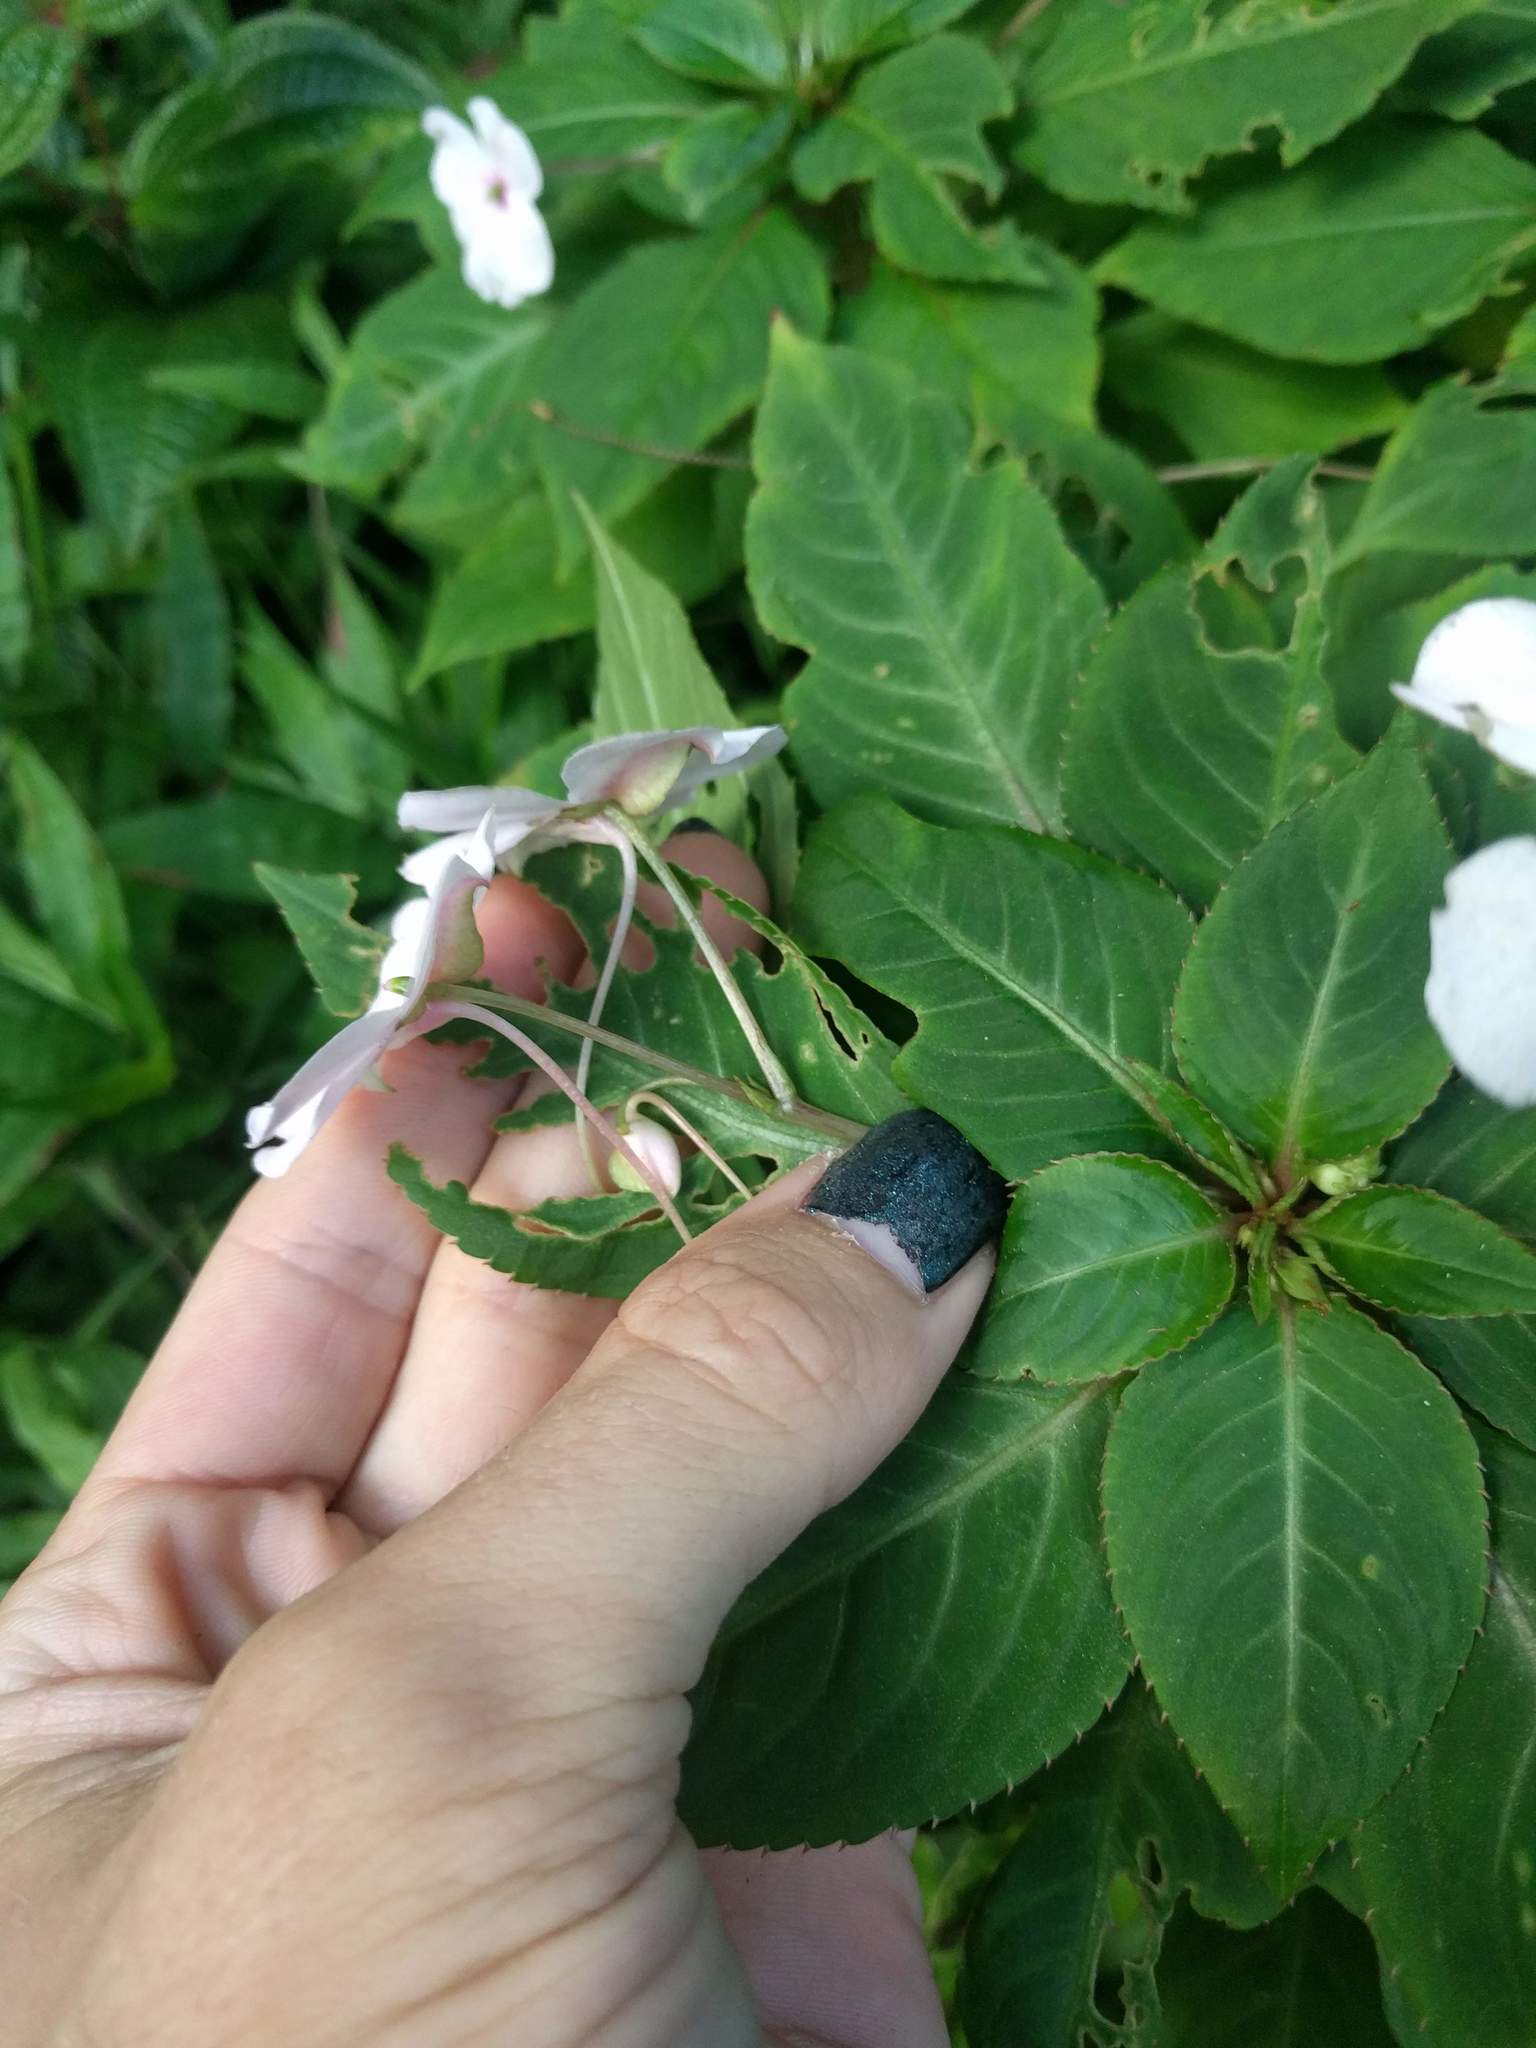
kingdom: Plantae
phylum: Tracheophyta
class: Magnoliopsida
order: Ericales
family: Balsaminaceae
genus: Impatiens
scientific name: Impatiens walleriana
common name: Buzzy lizzy
